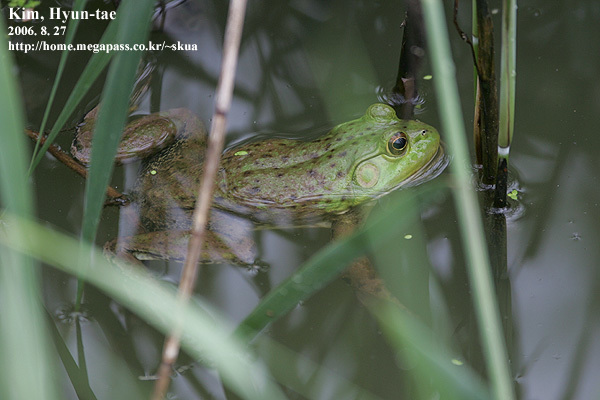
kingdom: Animalia
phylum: Chordata
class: Amphibia
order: Anura
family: Ranidae
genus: Lithobates
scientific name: Lithobates catesbeianus
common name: American bullfrog
